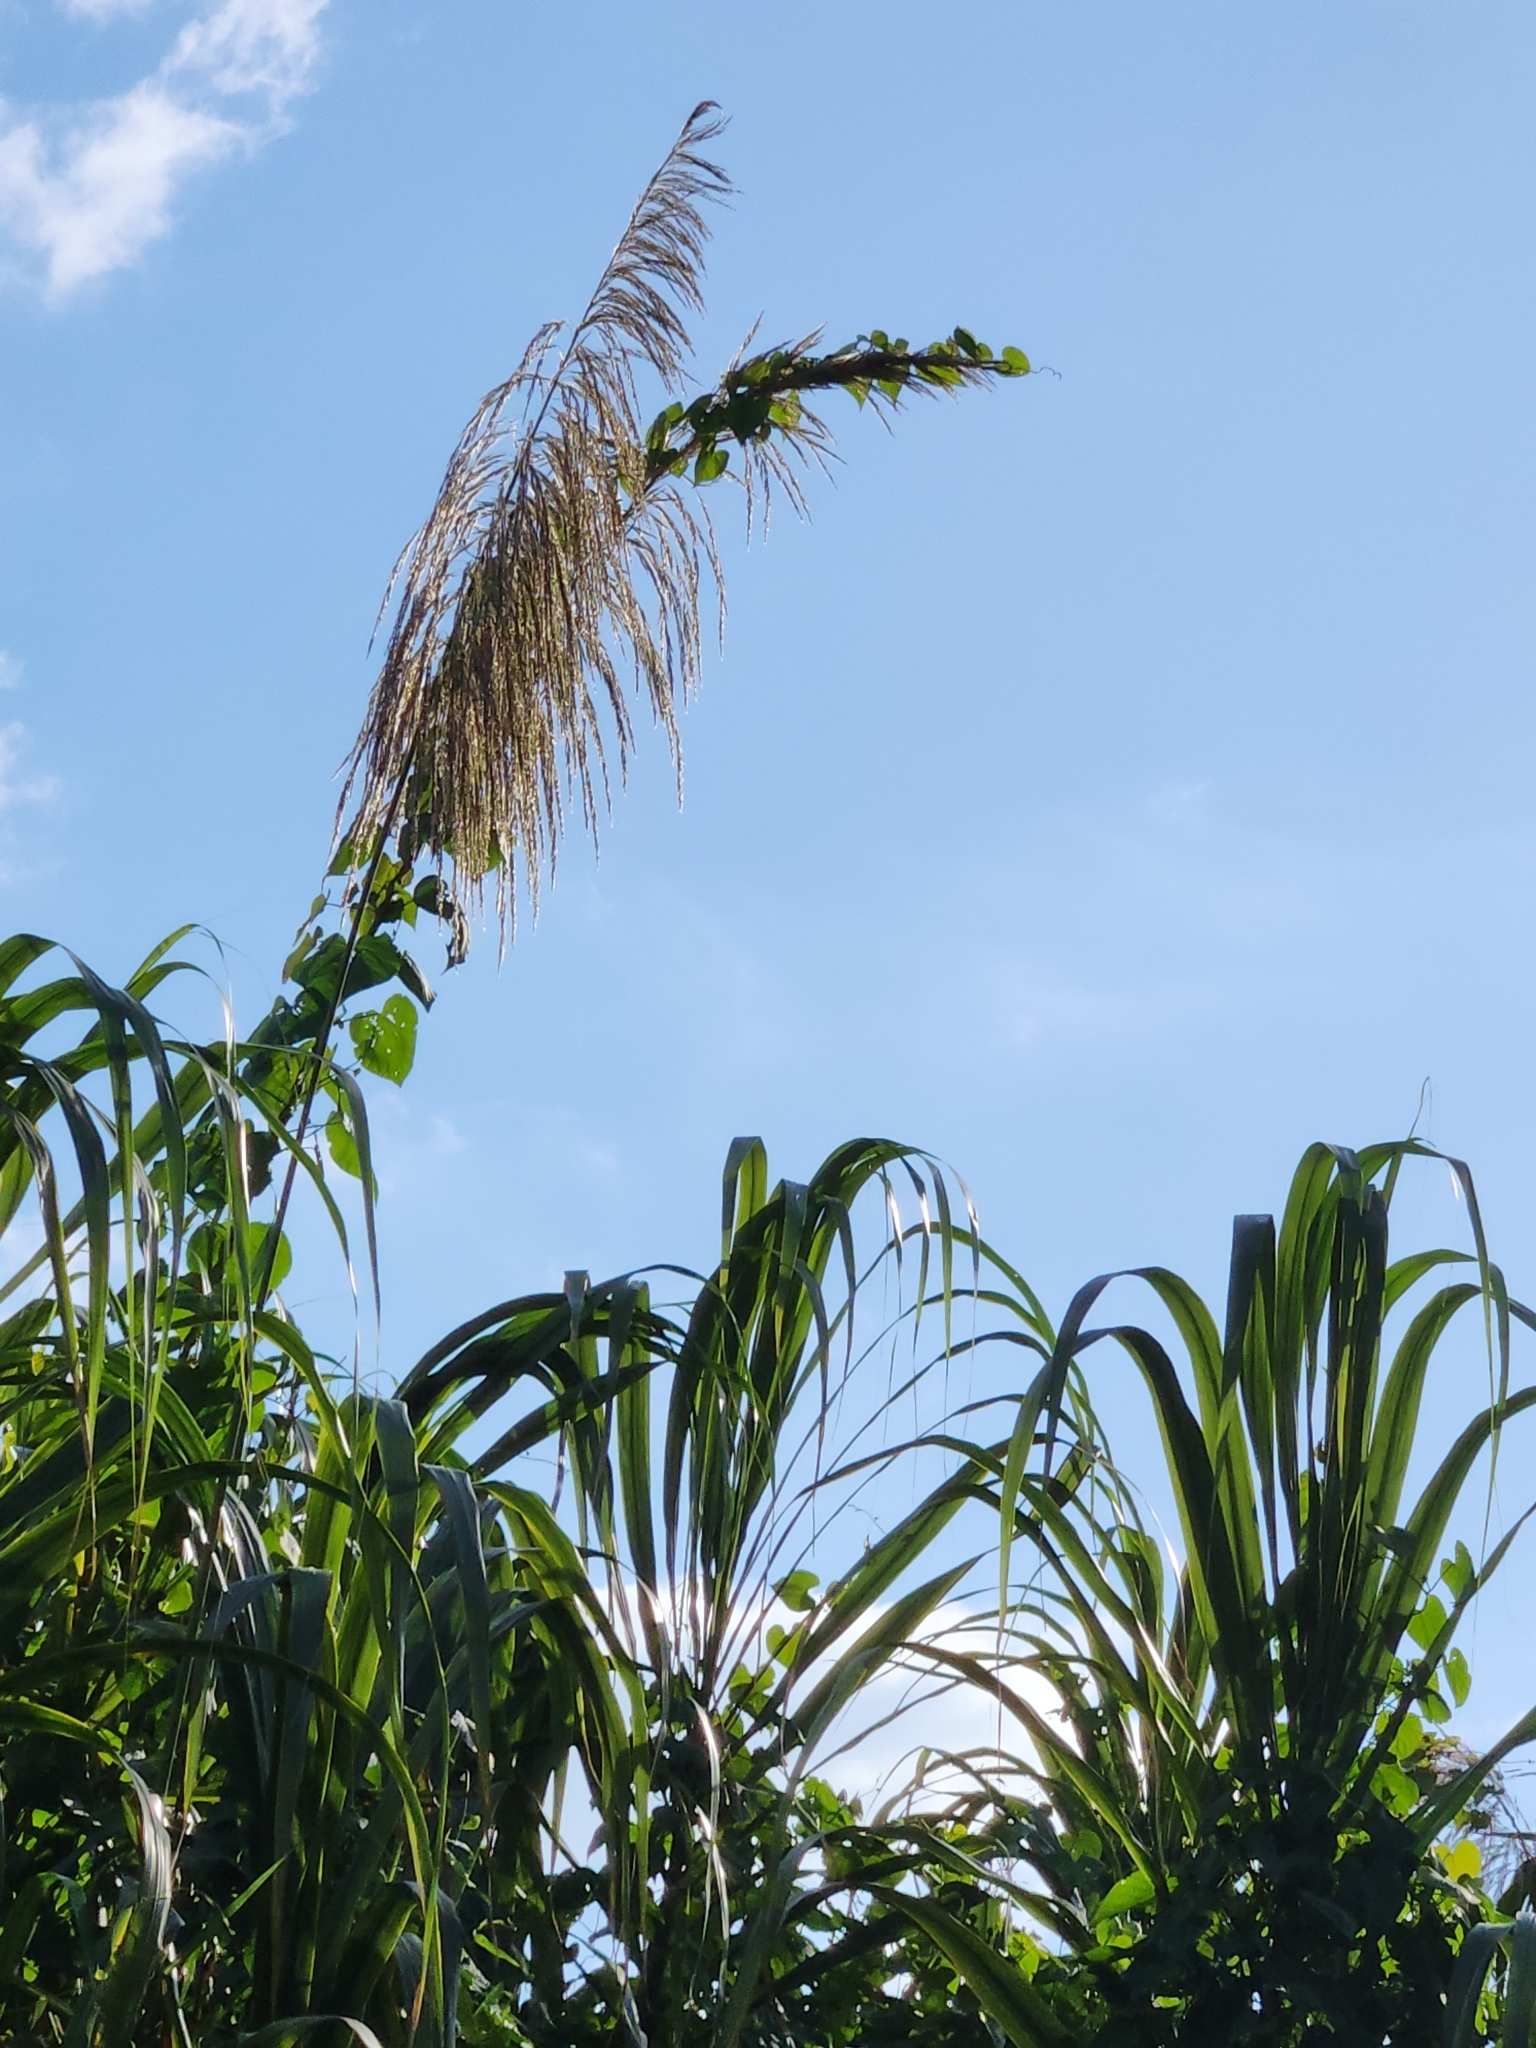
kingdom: Plantae
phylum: Tracheophyta
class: Liliopsida
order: Poales
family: Poaceae
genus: Gynerium
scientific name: Gynerium sagittatum
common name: Wild cane
